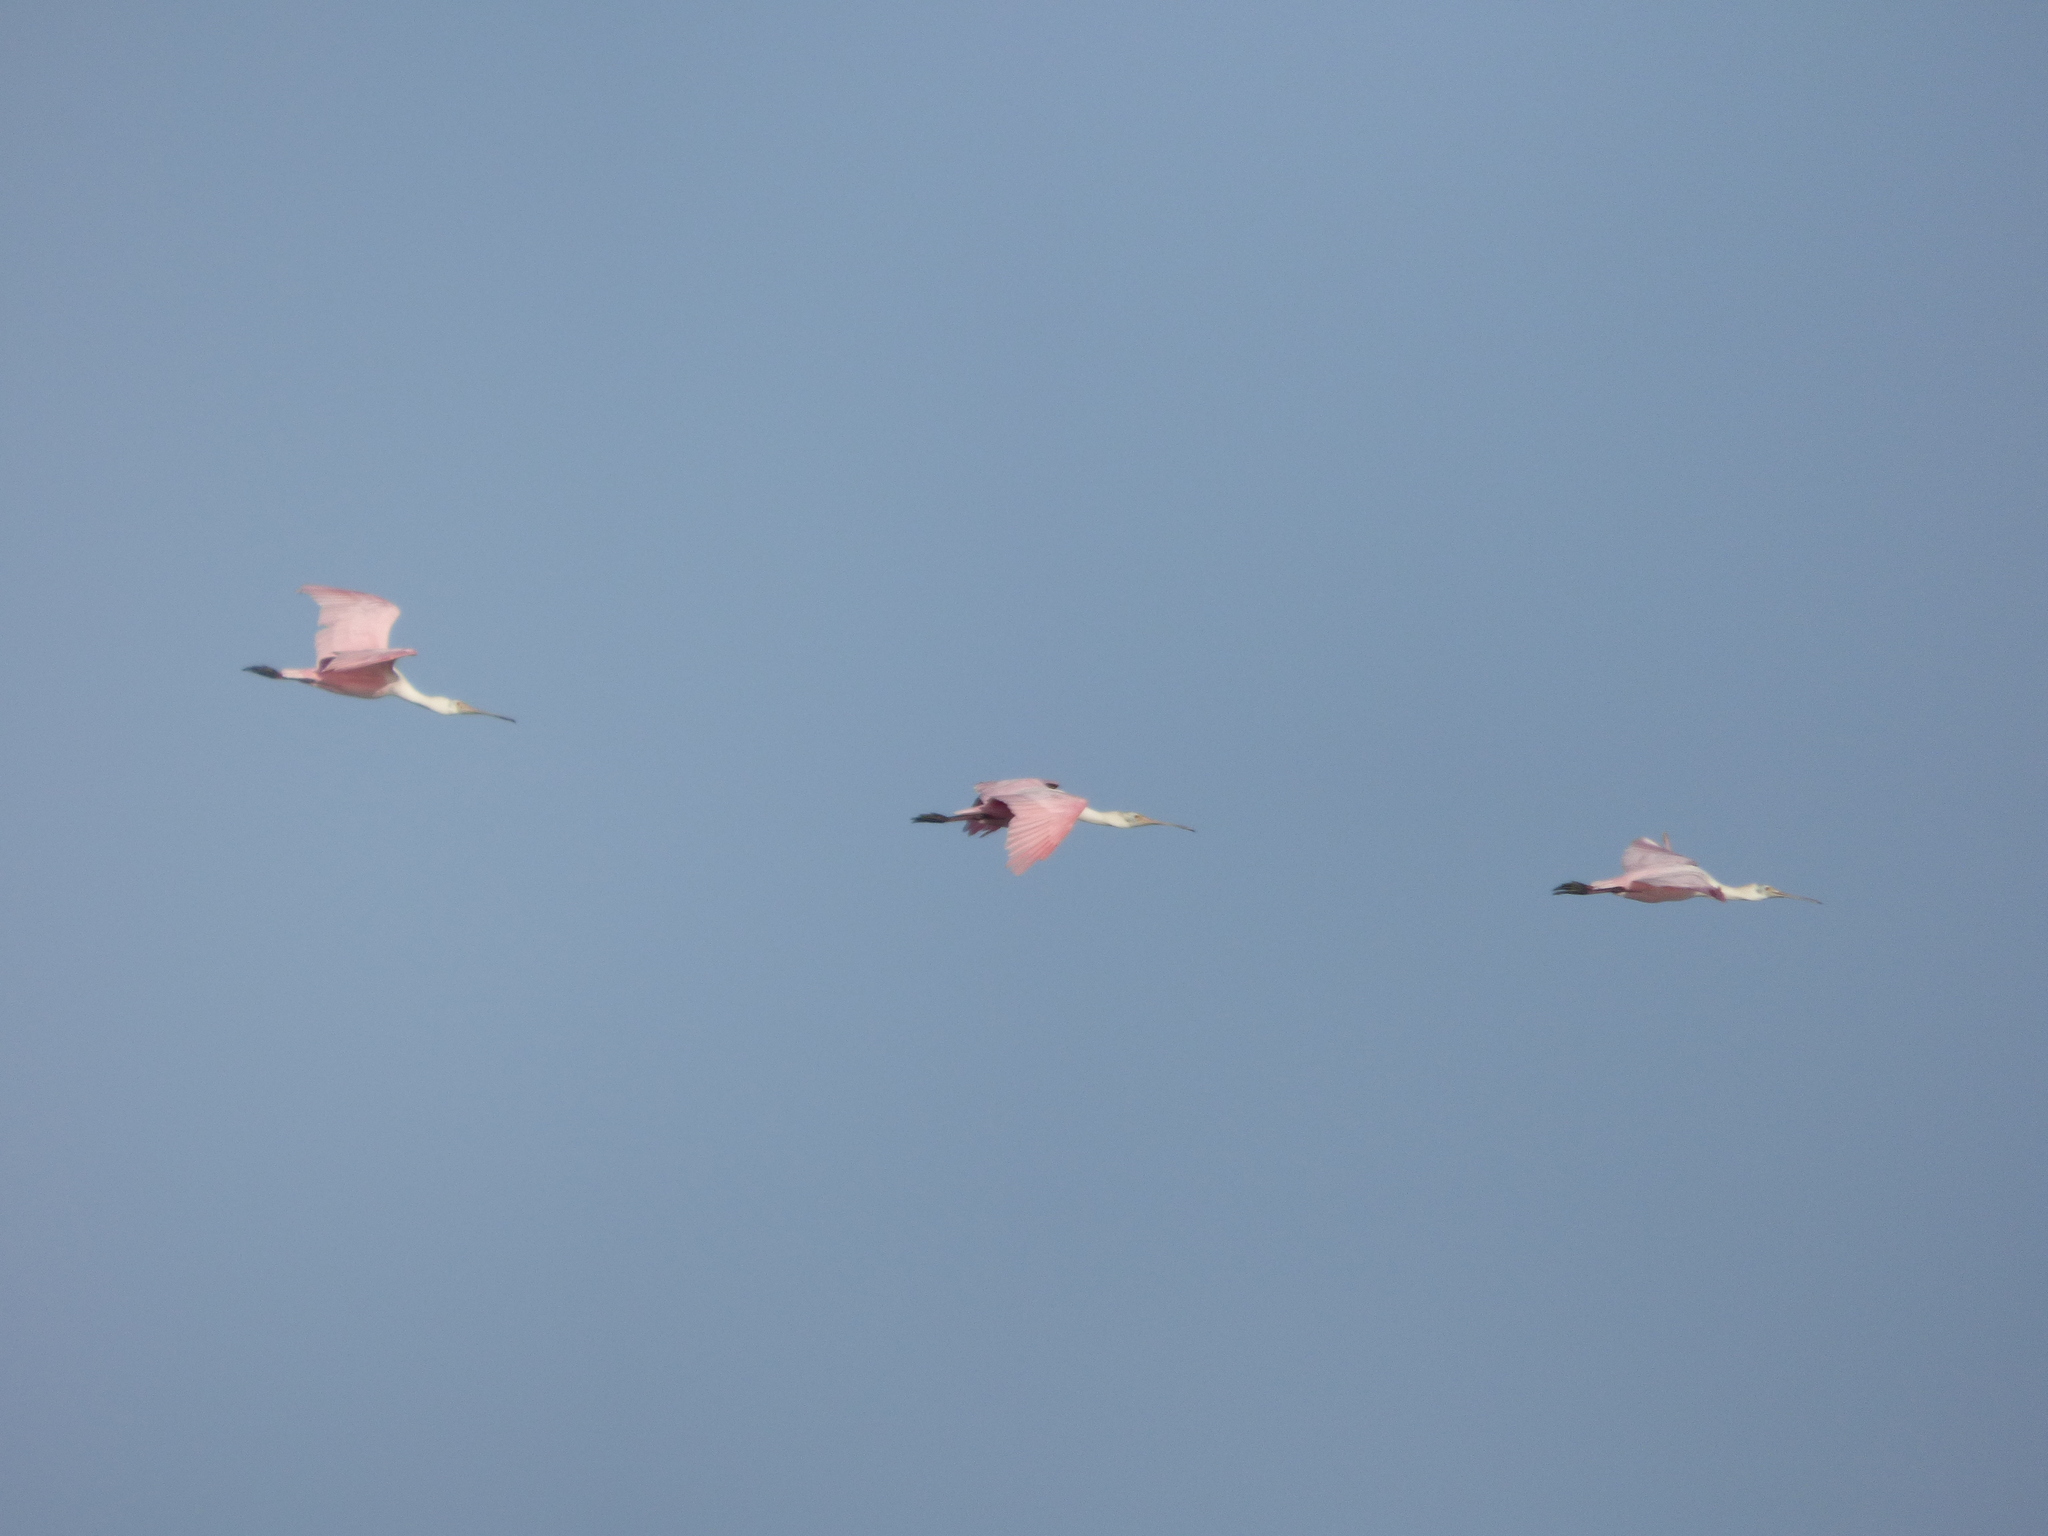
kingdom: Animalia
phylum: Chordata
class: Aves
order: Pelecaniformes
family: Threskiornithidae
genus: Platalea
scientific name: Platalea ajaja
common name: Roseate spoonbill
